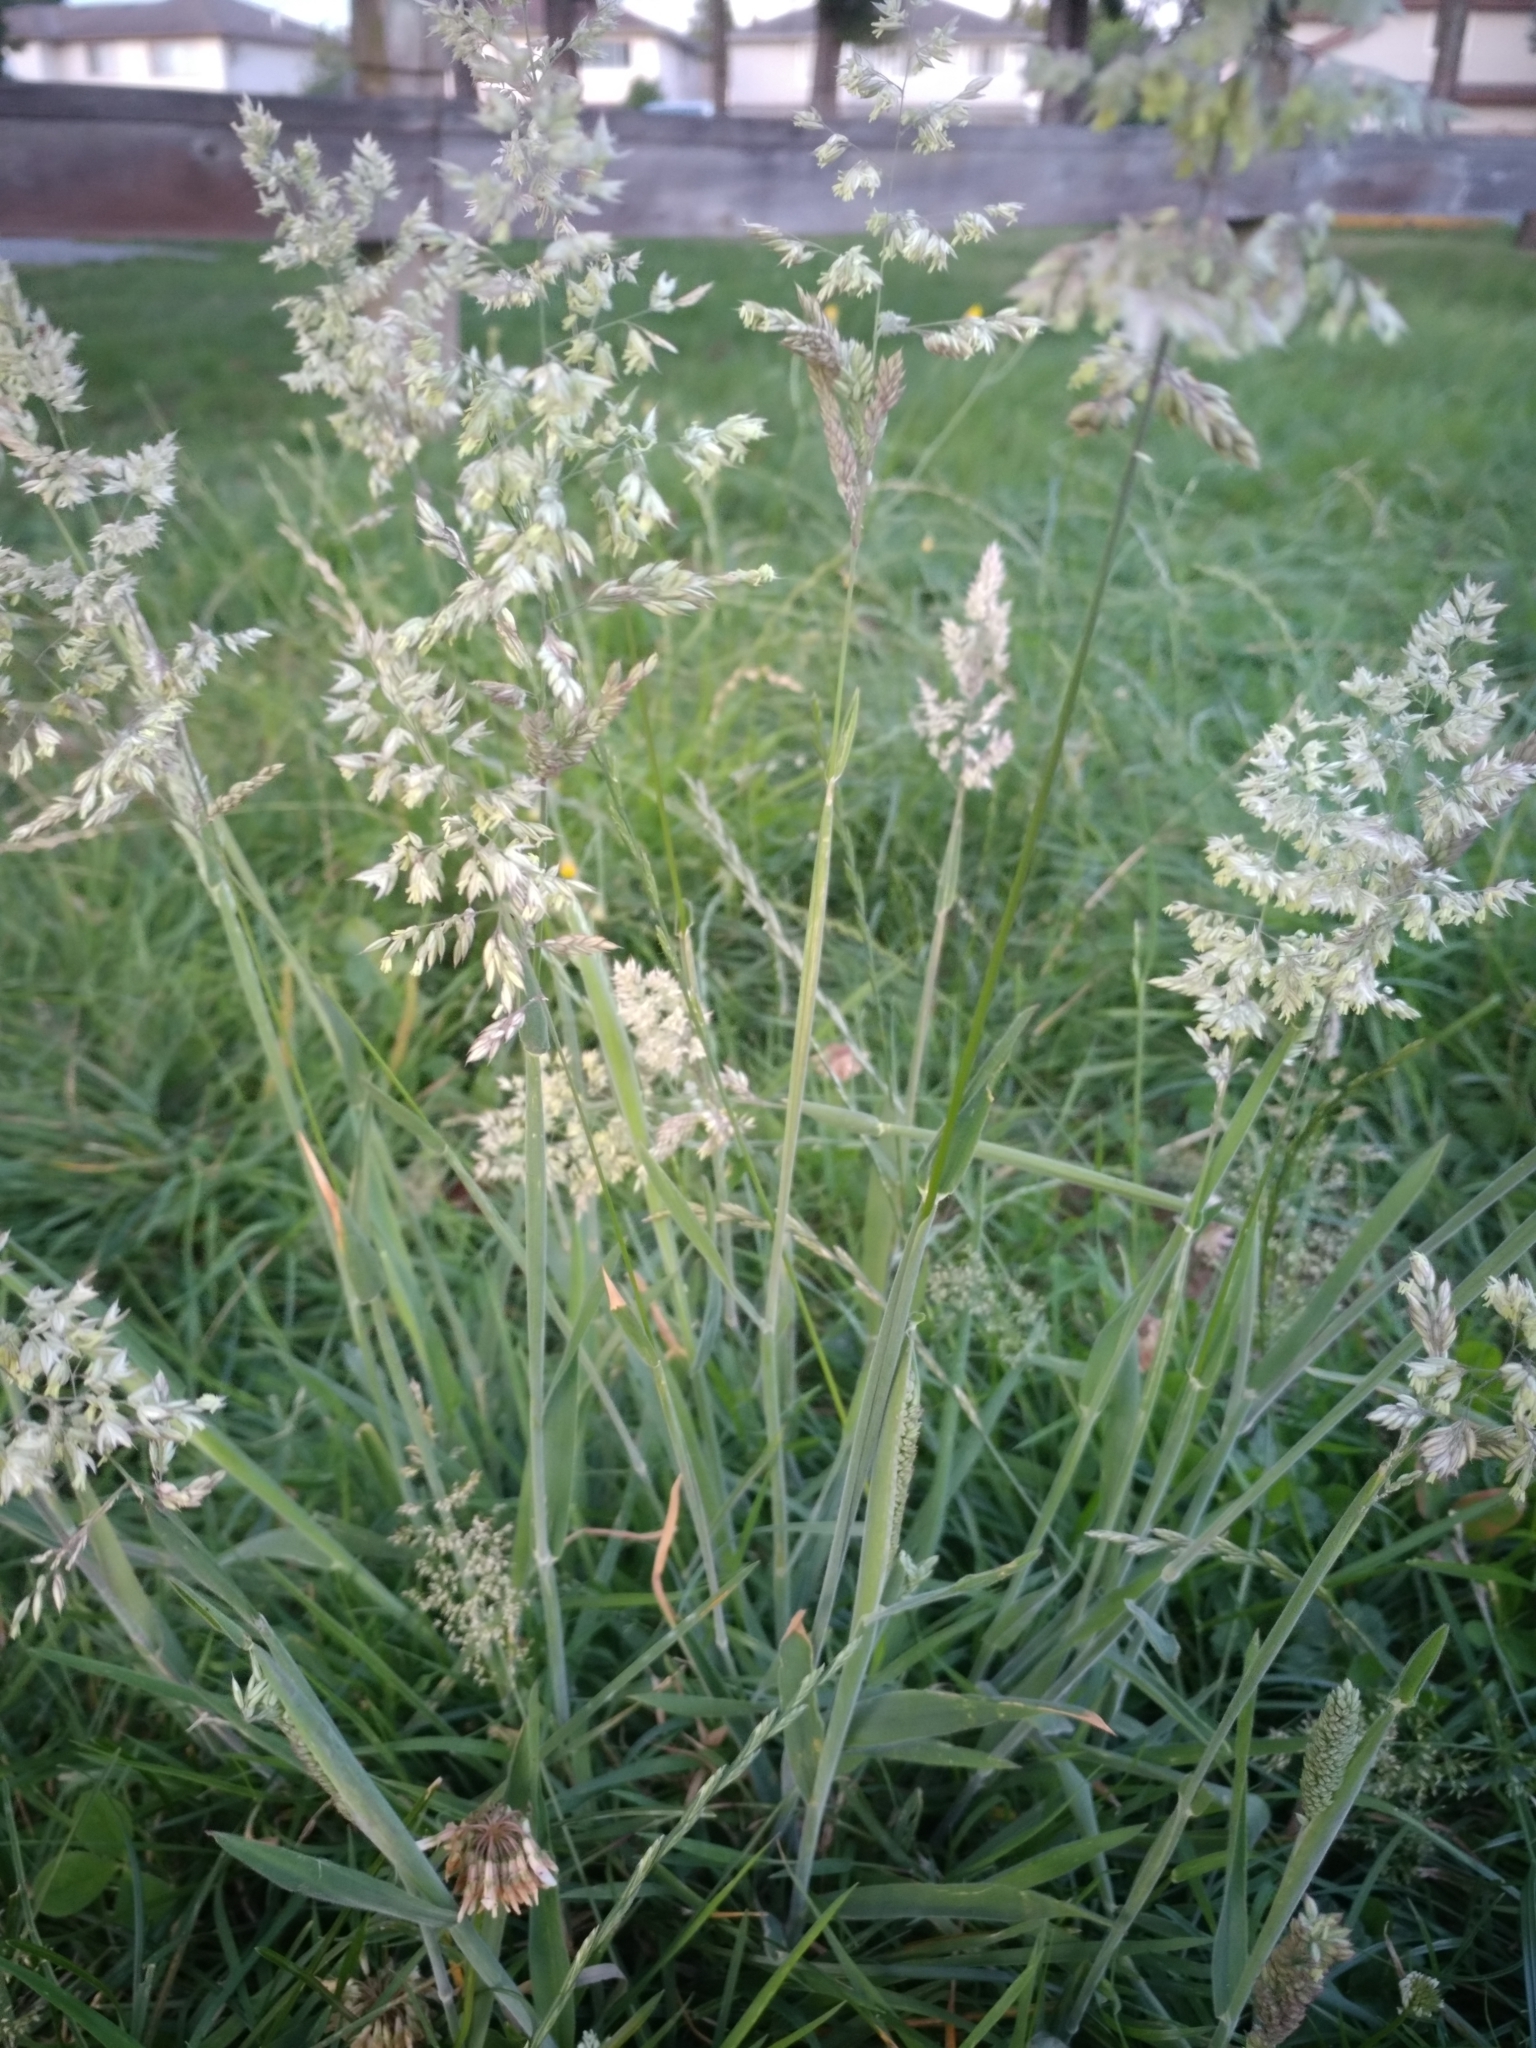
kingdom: Plantae
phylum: Tracheophyta
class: Liliopsida
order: Poales
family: Poaceae
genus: Holcus
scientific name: Holcus lanatus
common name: Yorkshire-fog
